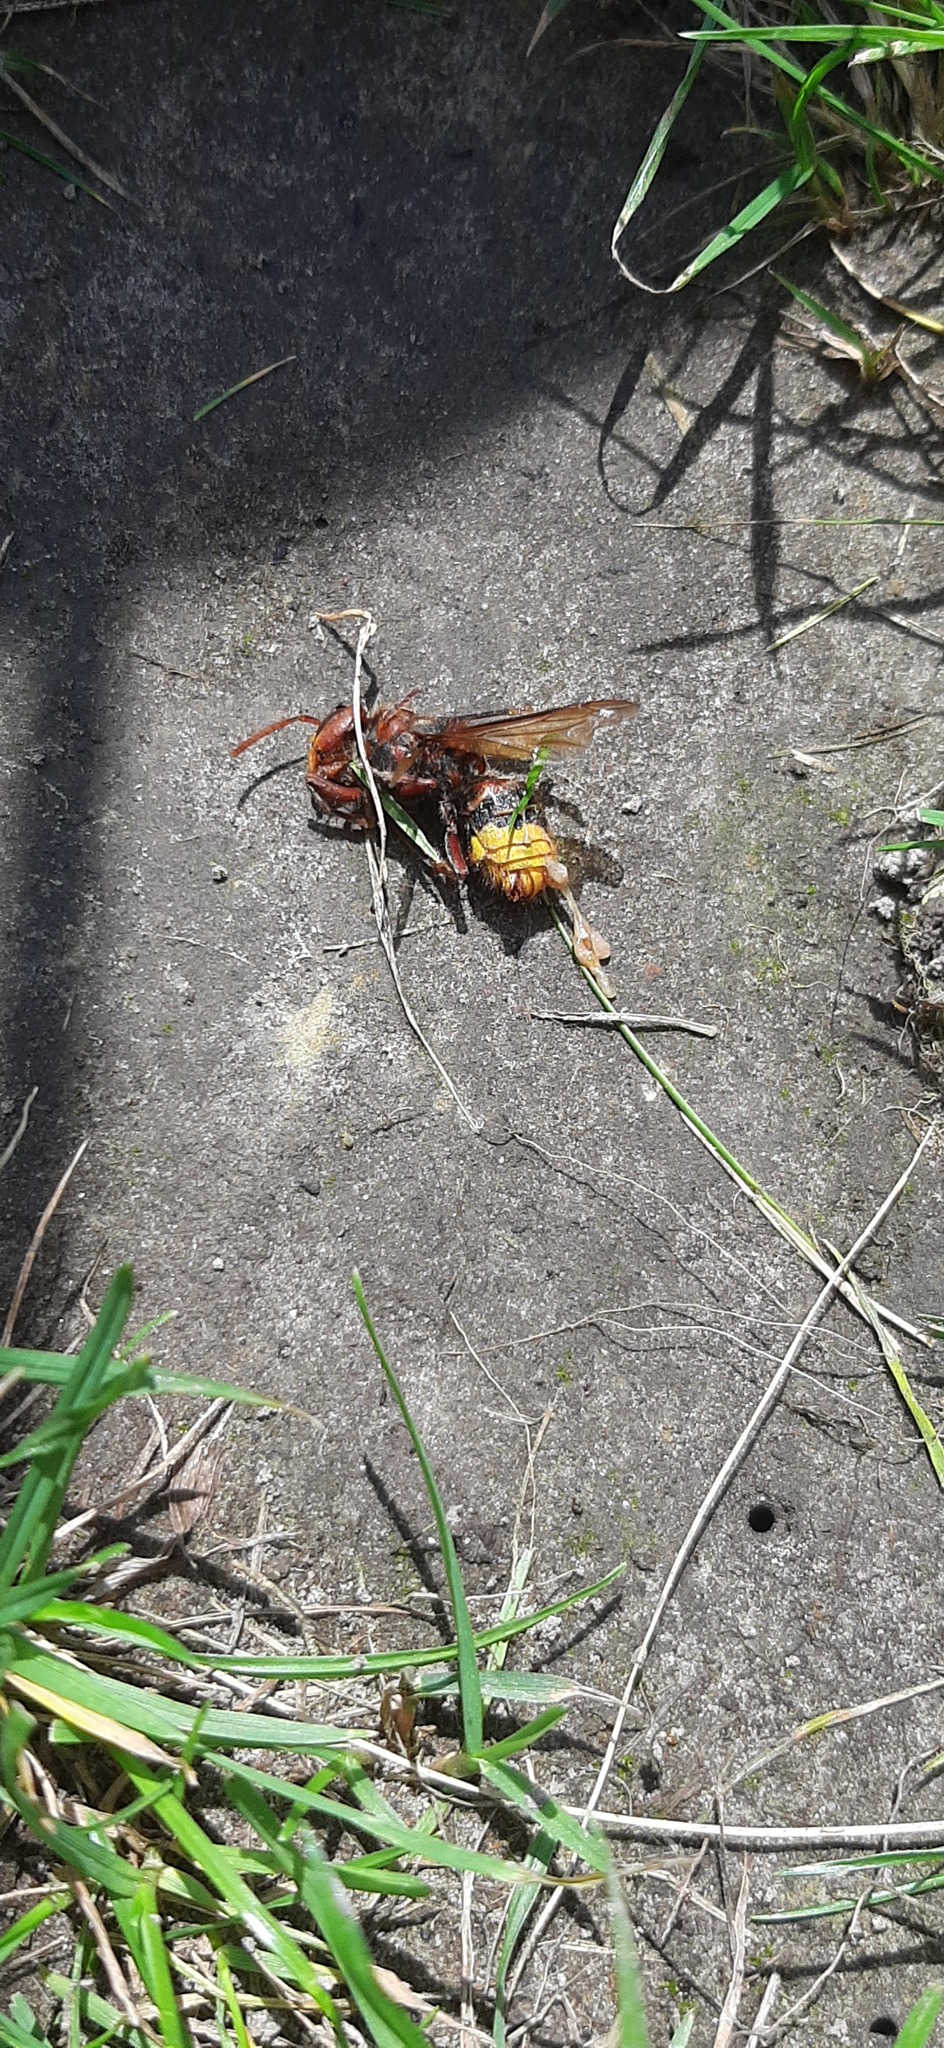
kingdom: Animalia
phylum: Arthropoda
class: Insecta
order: Hymenoptera
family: Vespidae
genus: Vespa
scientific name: Vespa crabro
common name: Hornet
